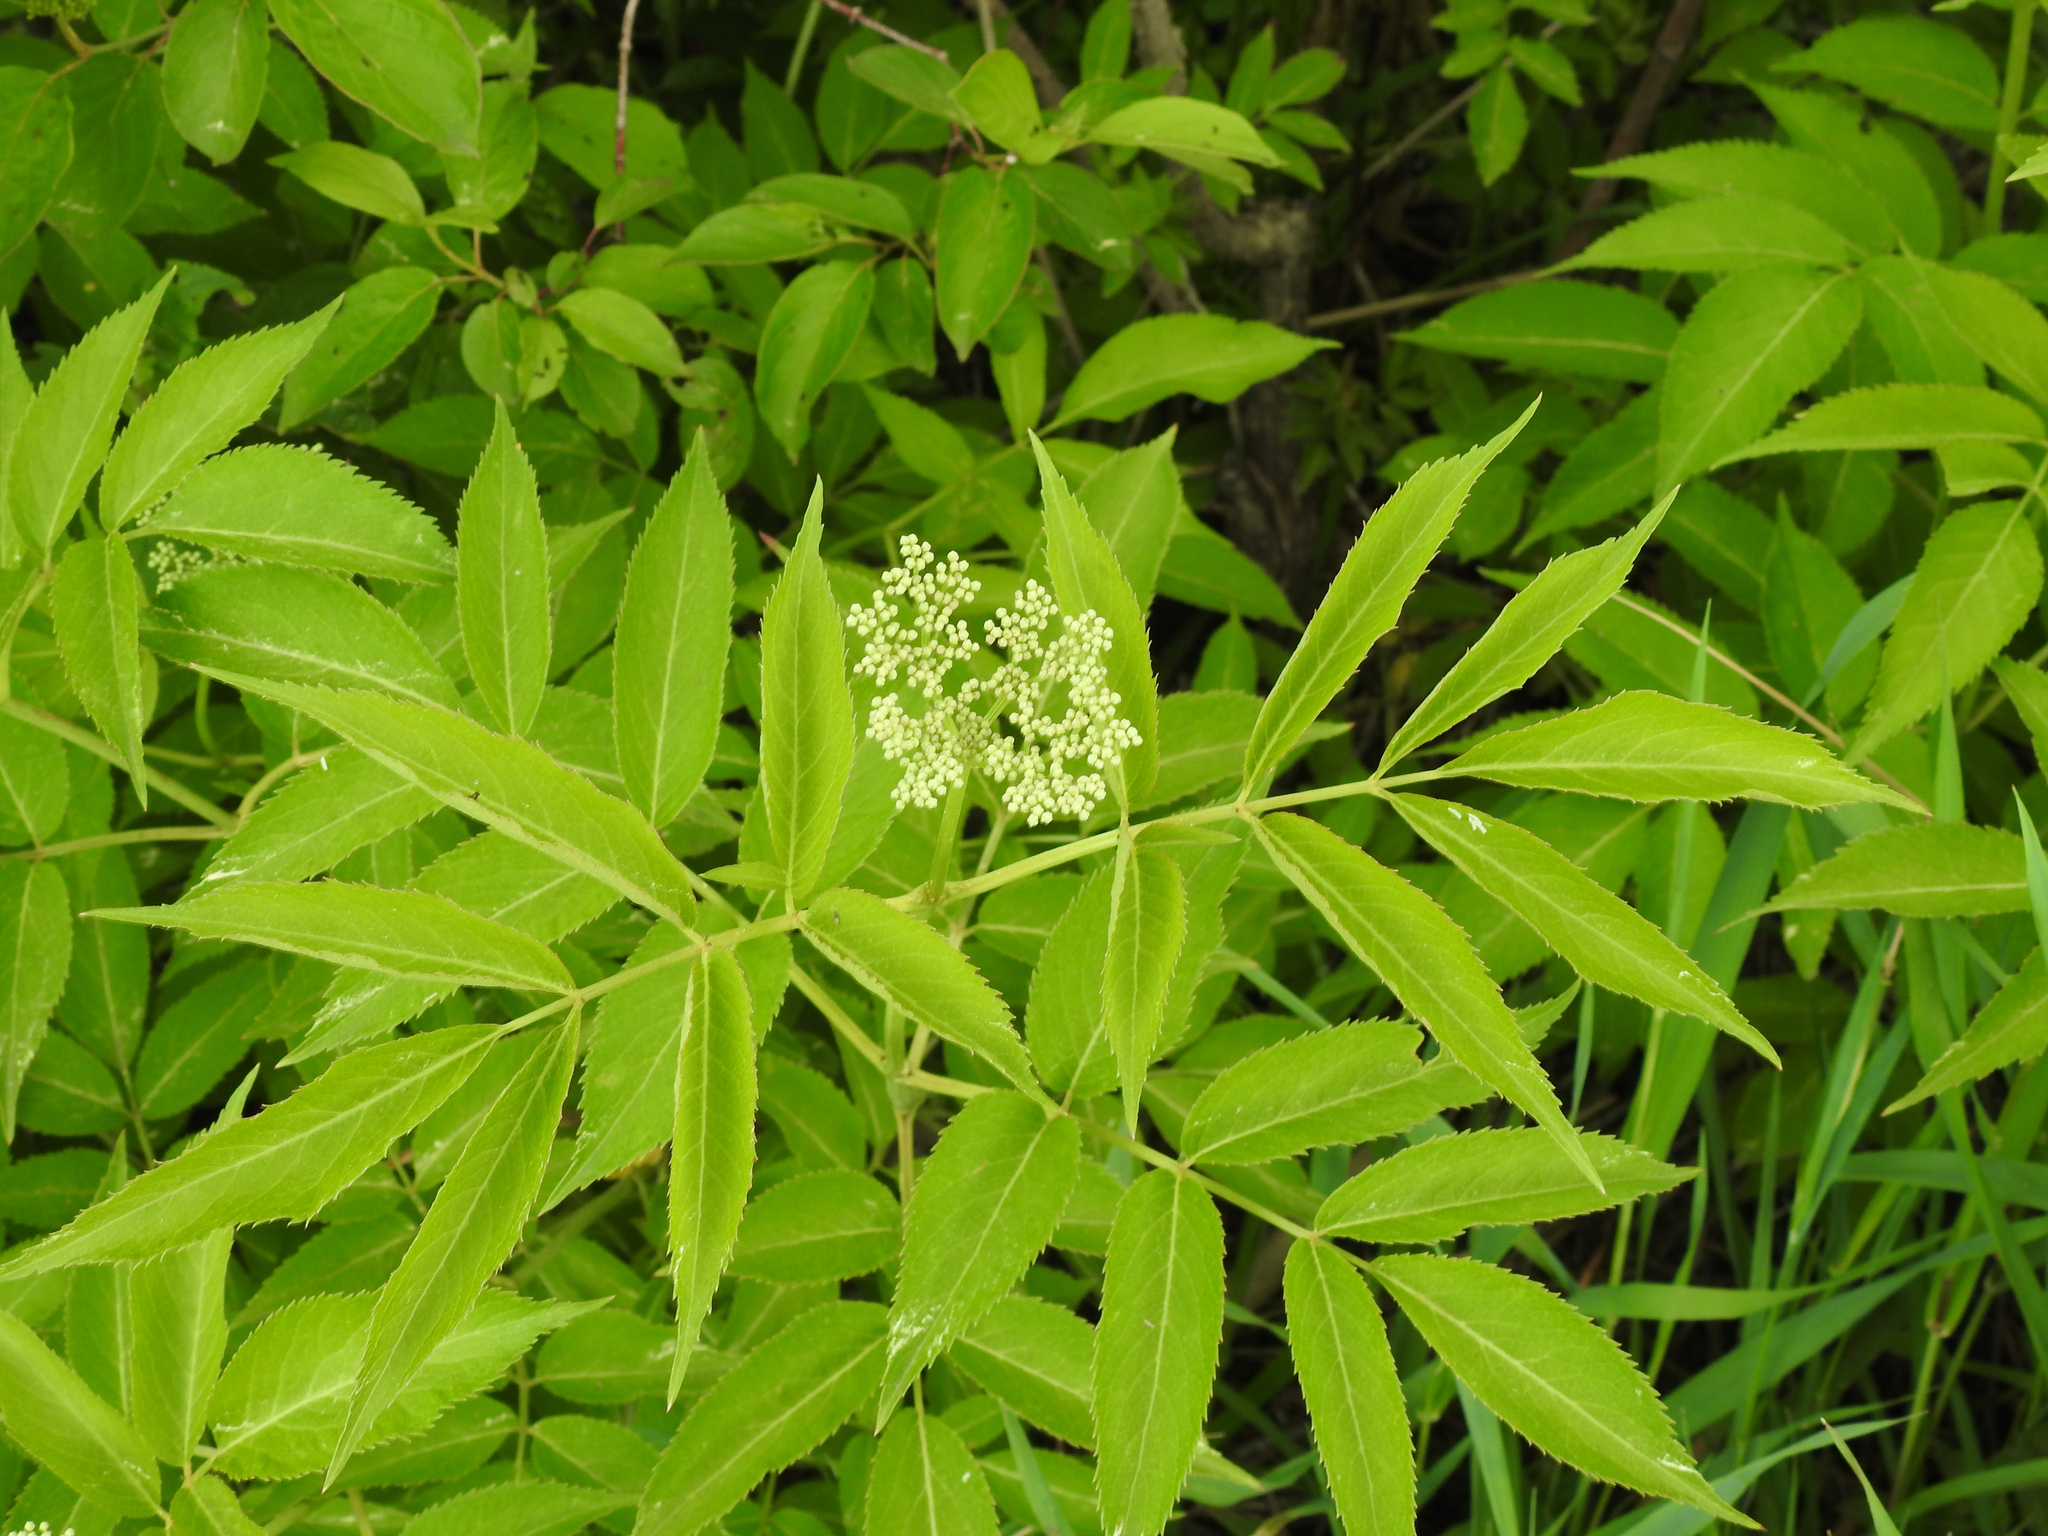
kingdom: Plantae
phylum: Tracheophyta
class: Magnoliopsida
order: Dipsacales
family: Viburnaceae
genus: Sambucus
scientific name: Sambucus canadensis
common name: American elder
